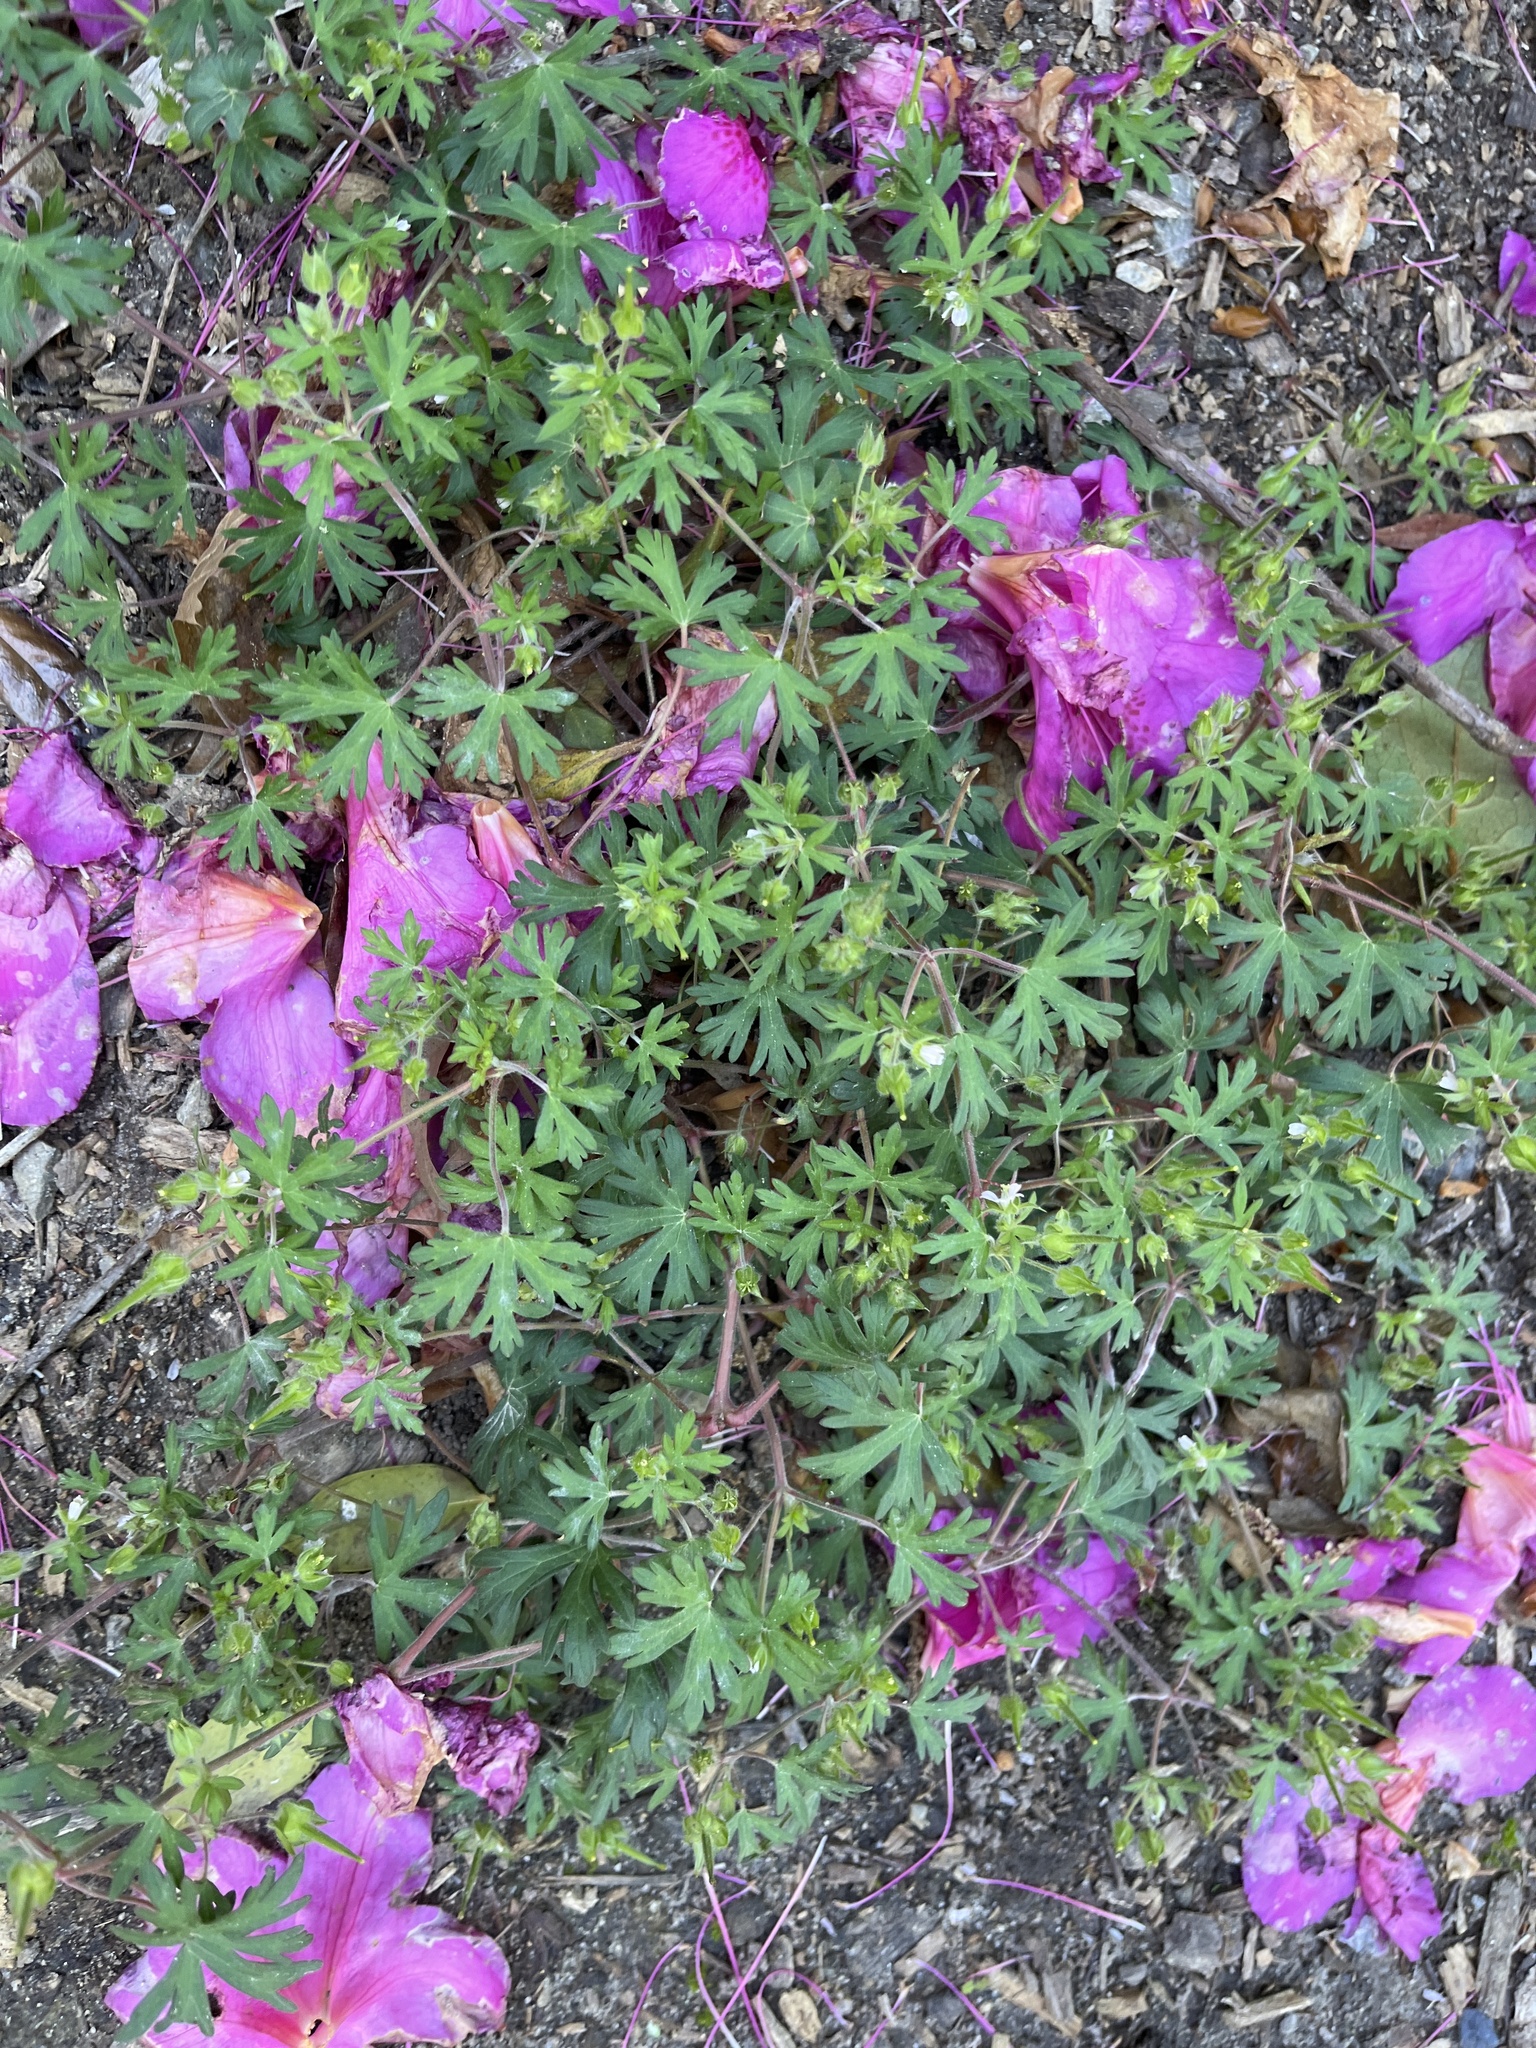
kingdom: Plantae
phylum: Tracheophyta
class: Magnoliopsida
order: Geraniales
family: Geraniaceae
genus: Geranium
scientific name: Geranium carolinianum
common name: Carolina crane's-bill
